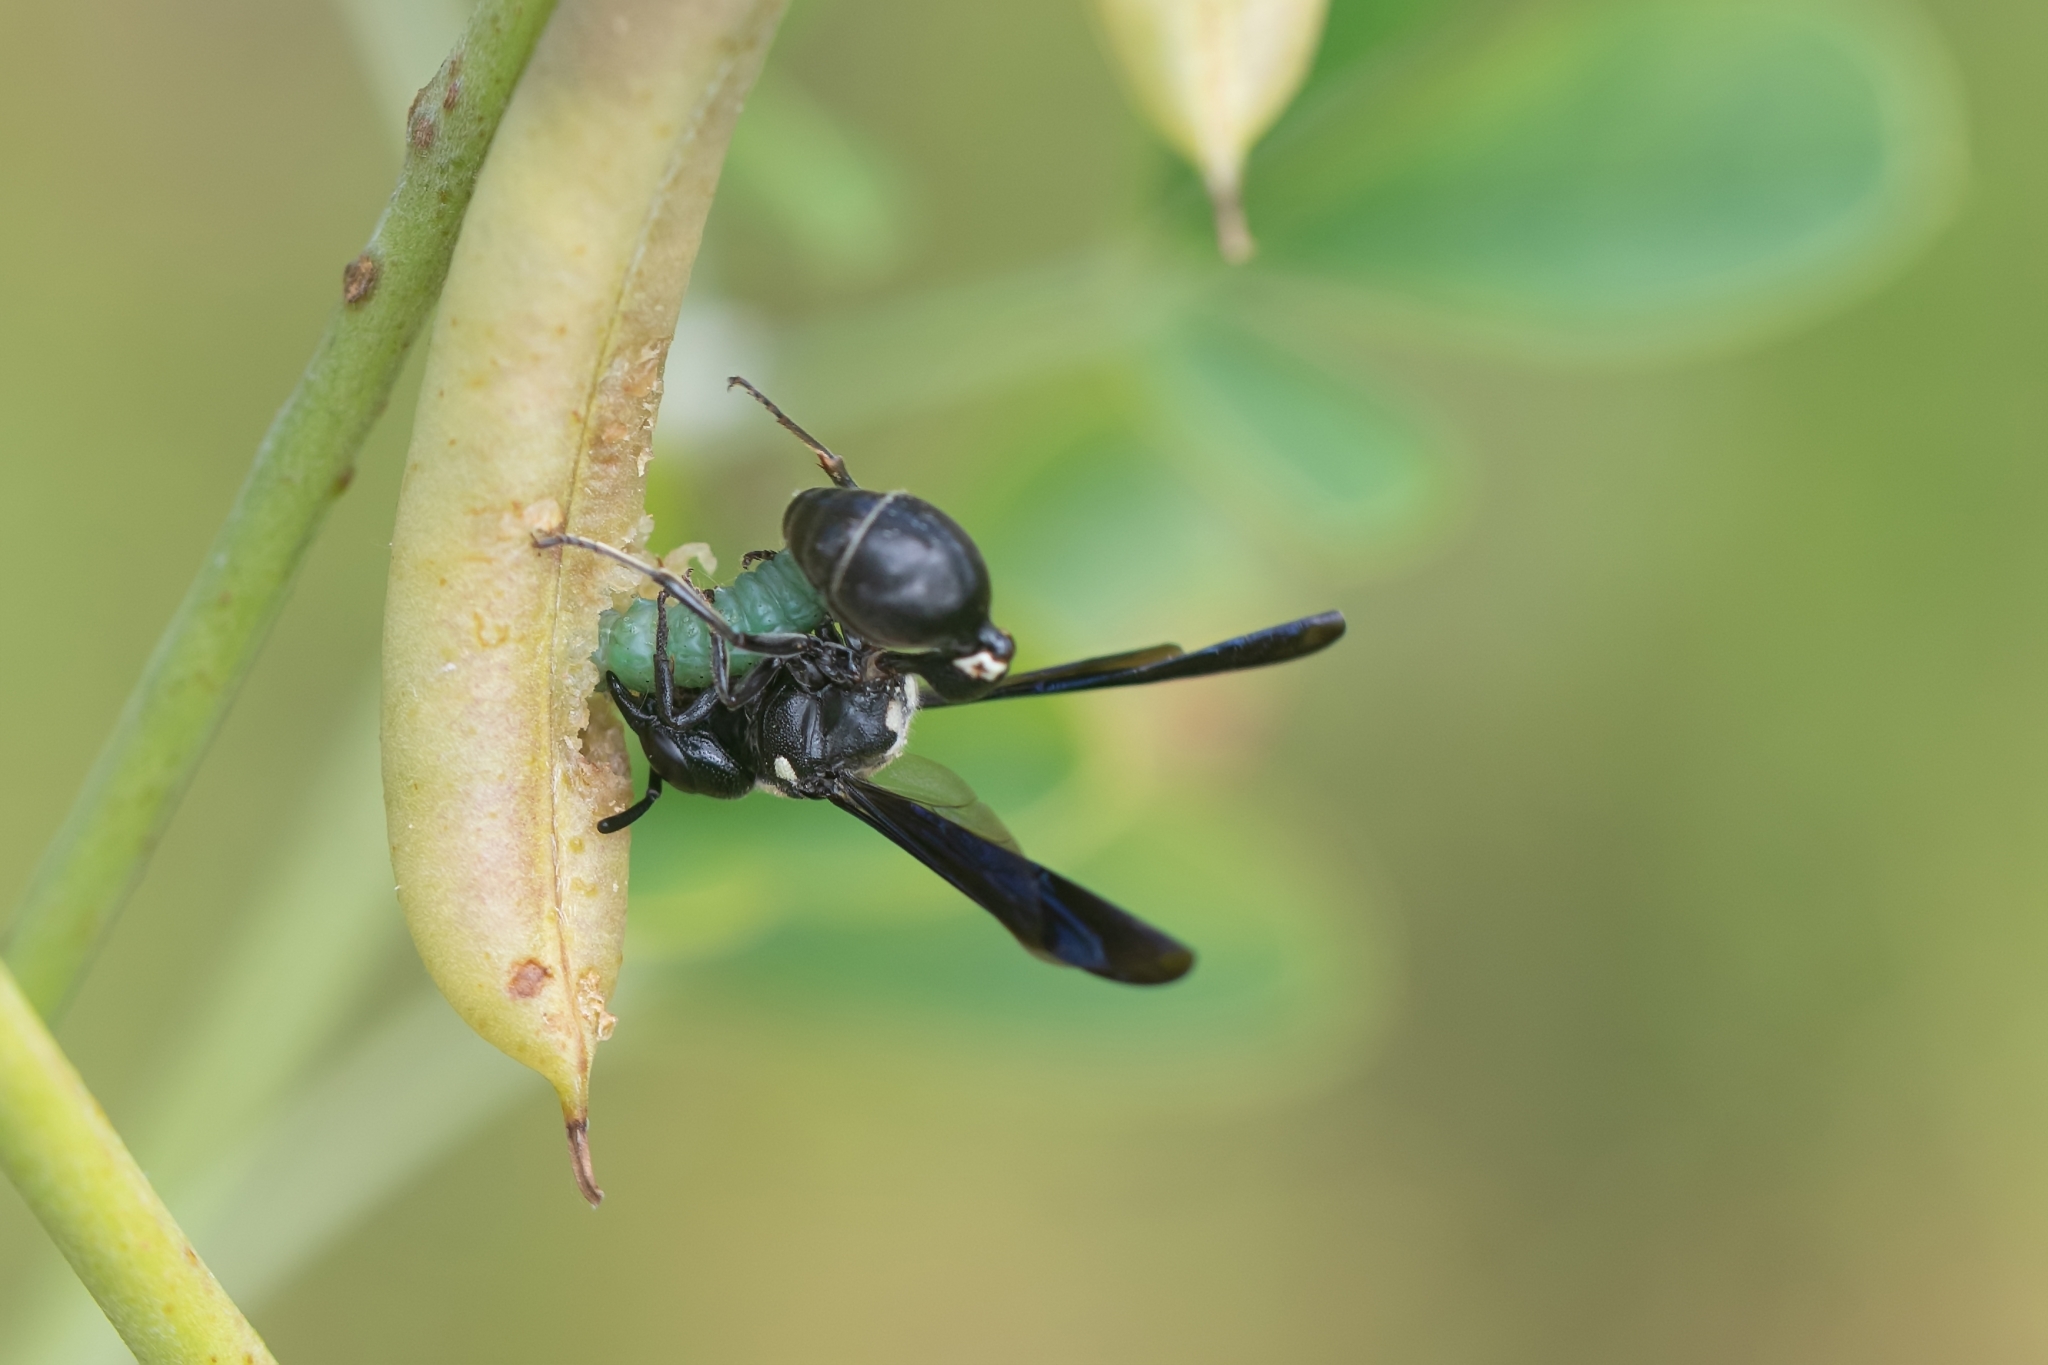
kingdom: Animalia
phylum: Arthropoda
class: Insecta
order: Hymenoptera
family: Eumenidae
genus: Zethus
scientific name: Zethus spinipes
